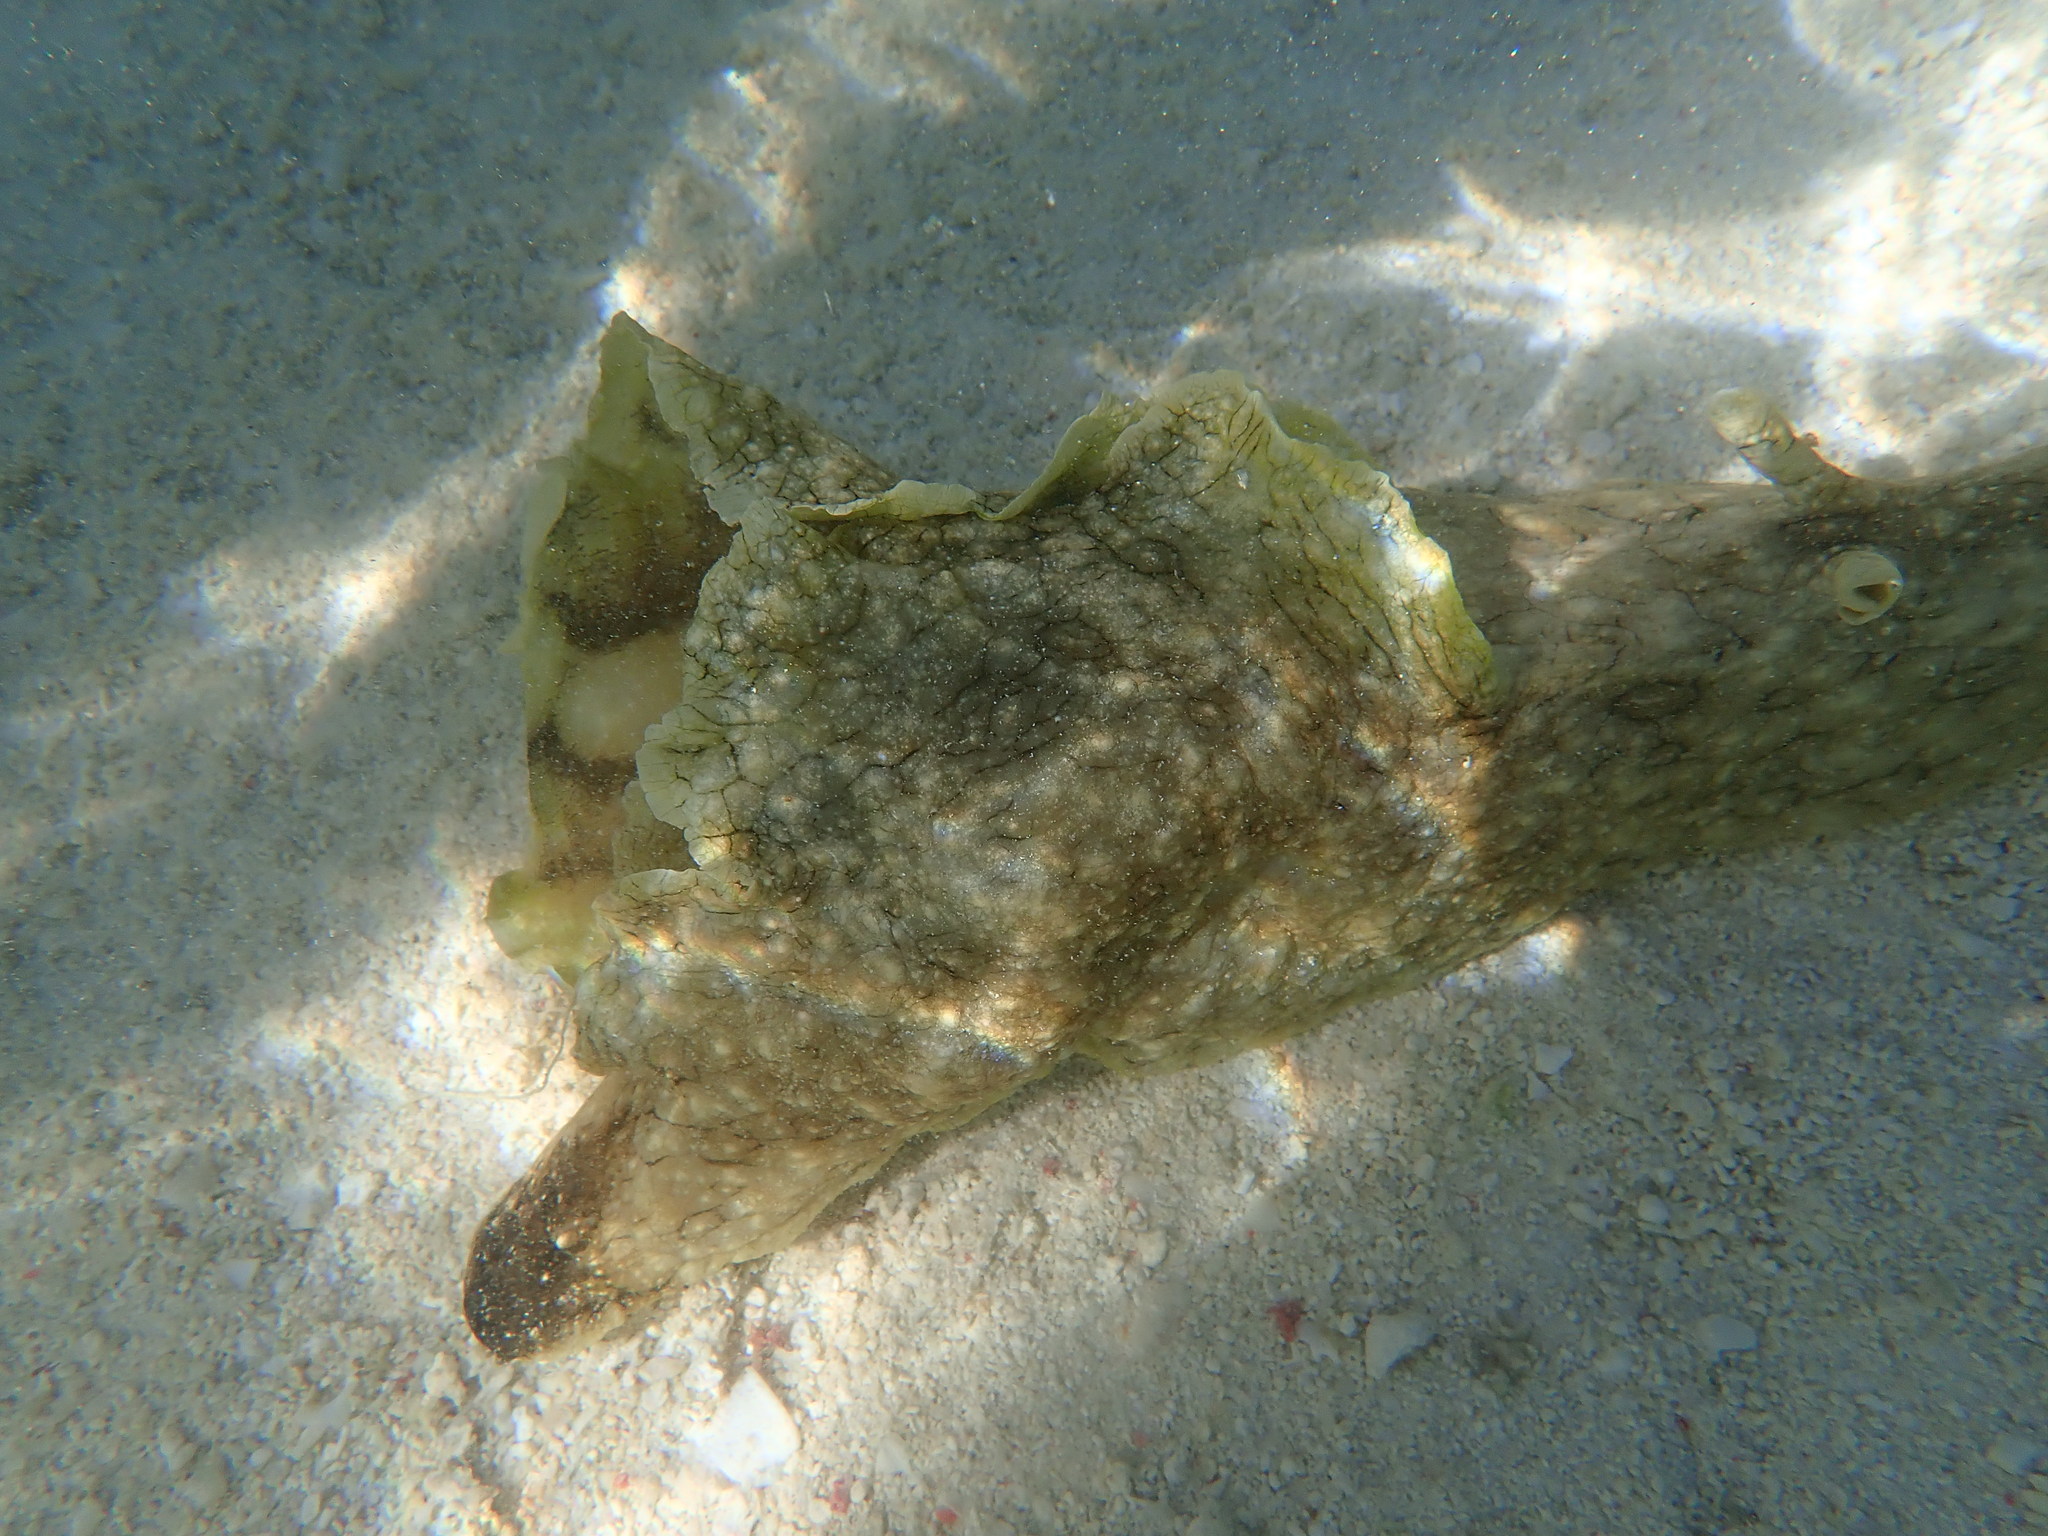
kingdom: Animalia
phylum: Mollusca
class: Gastropoda
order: Aplysiida
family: Aplysiidae
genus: Aplysia
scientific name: Aplysia argus
